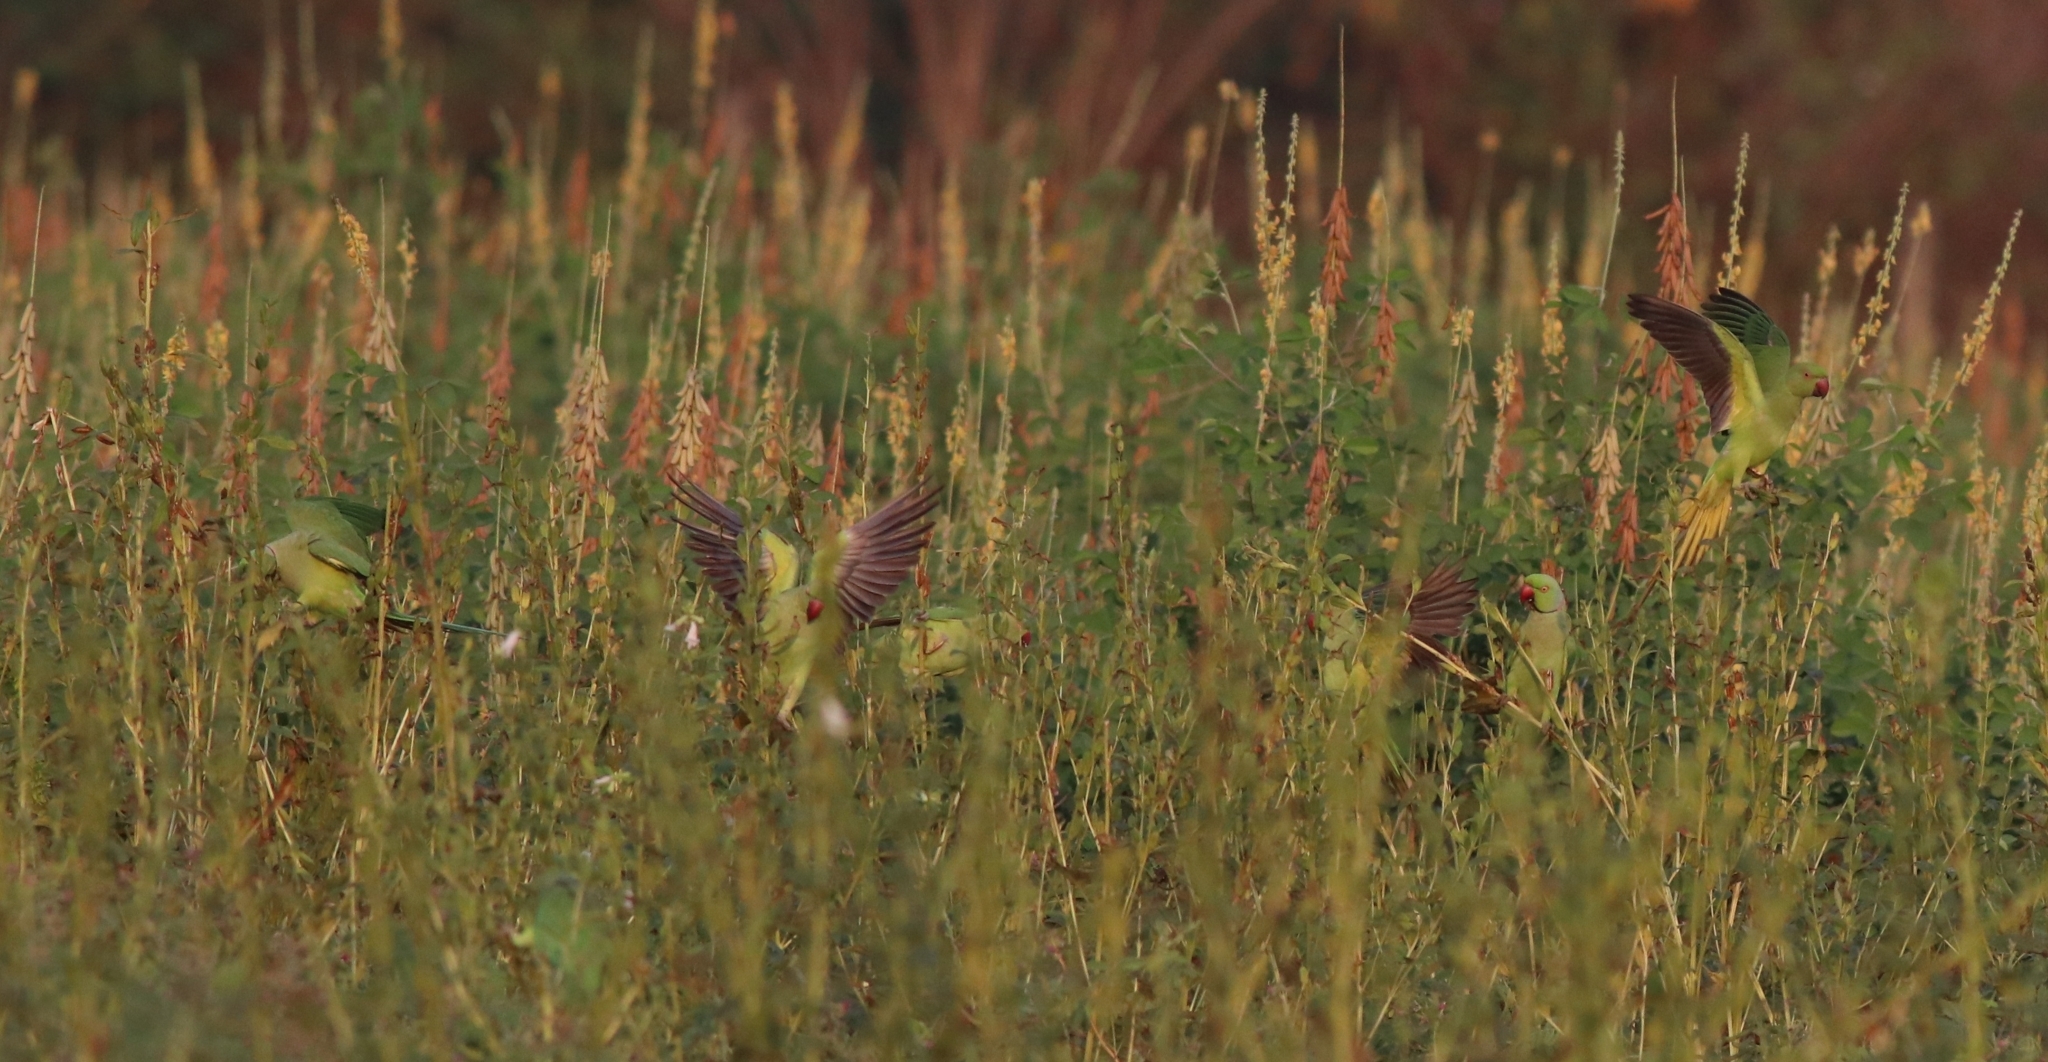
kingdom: Animalia
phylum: Chordata
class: Aves
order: Psittaciformes
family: Psittacidae
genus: Psittacula
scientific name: Psittacula krameri
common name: Rose-ringed parakeet
